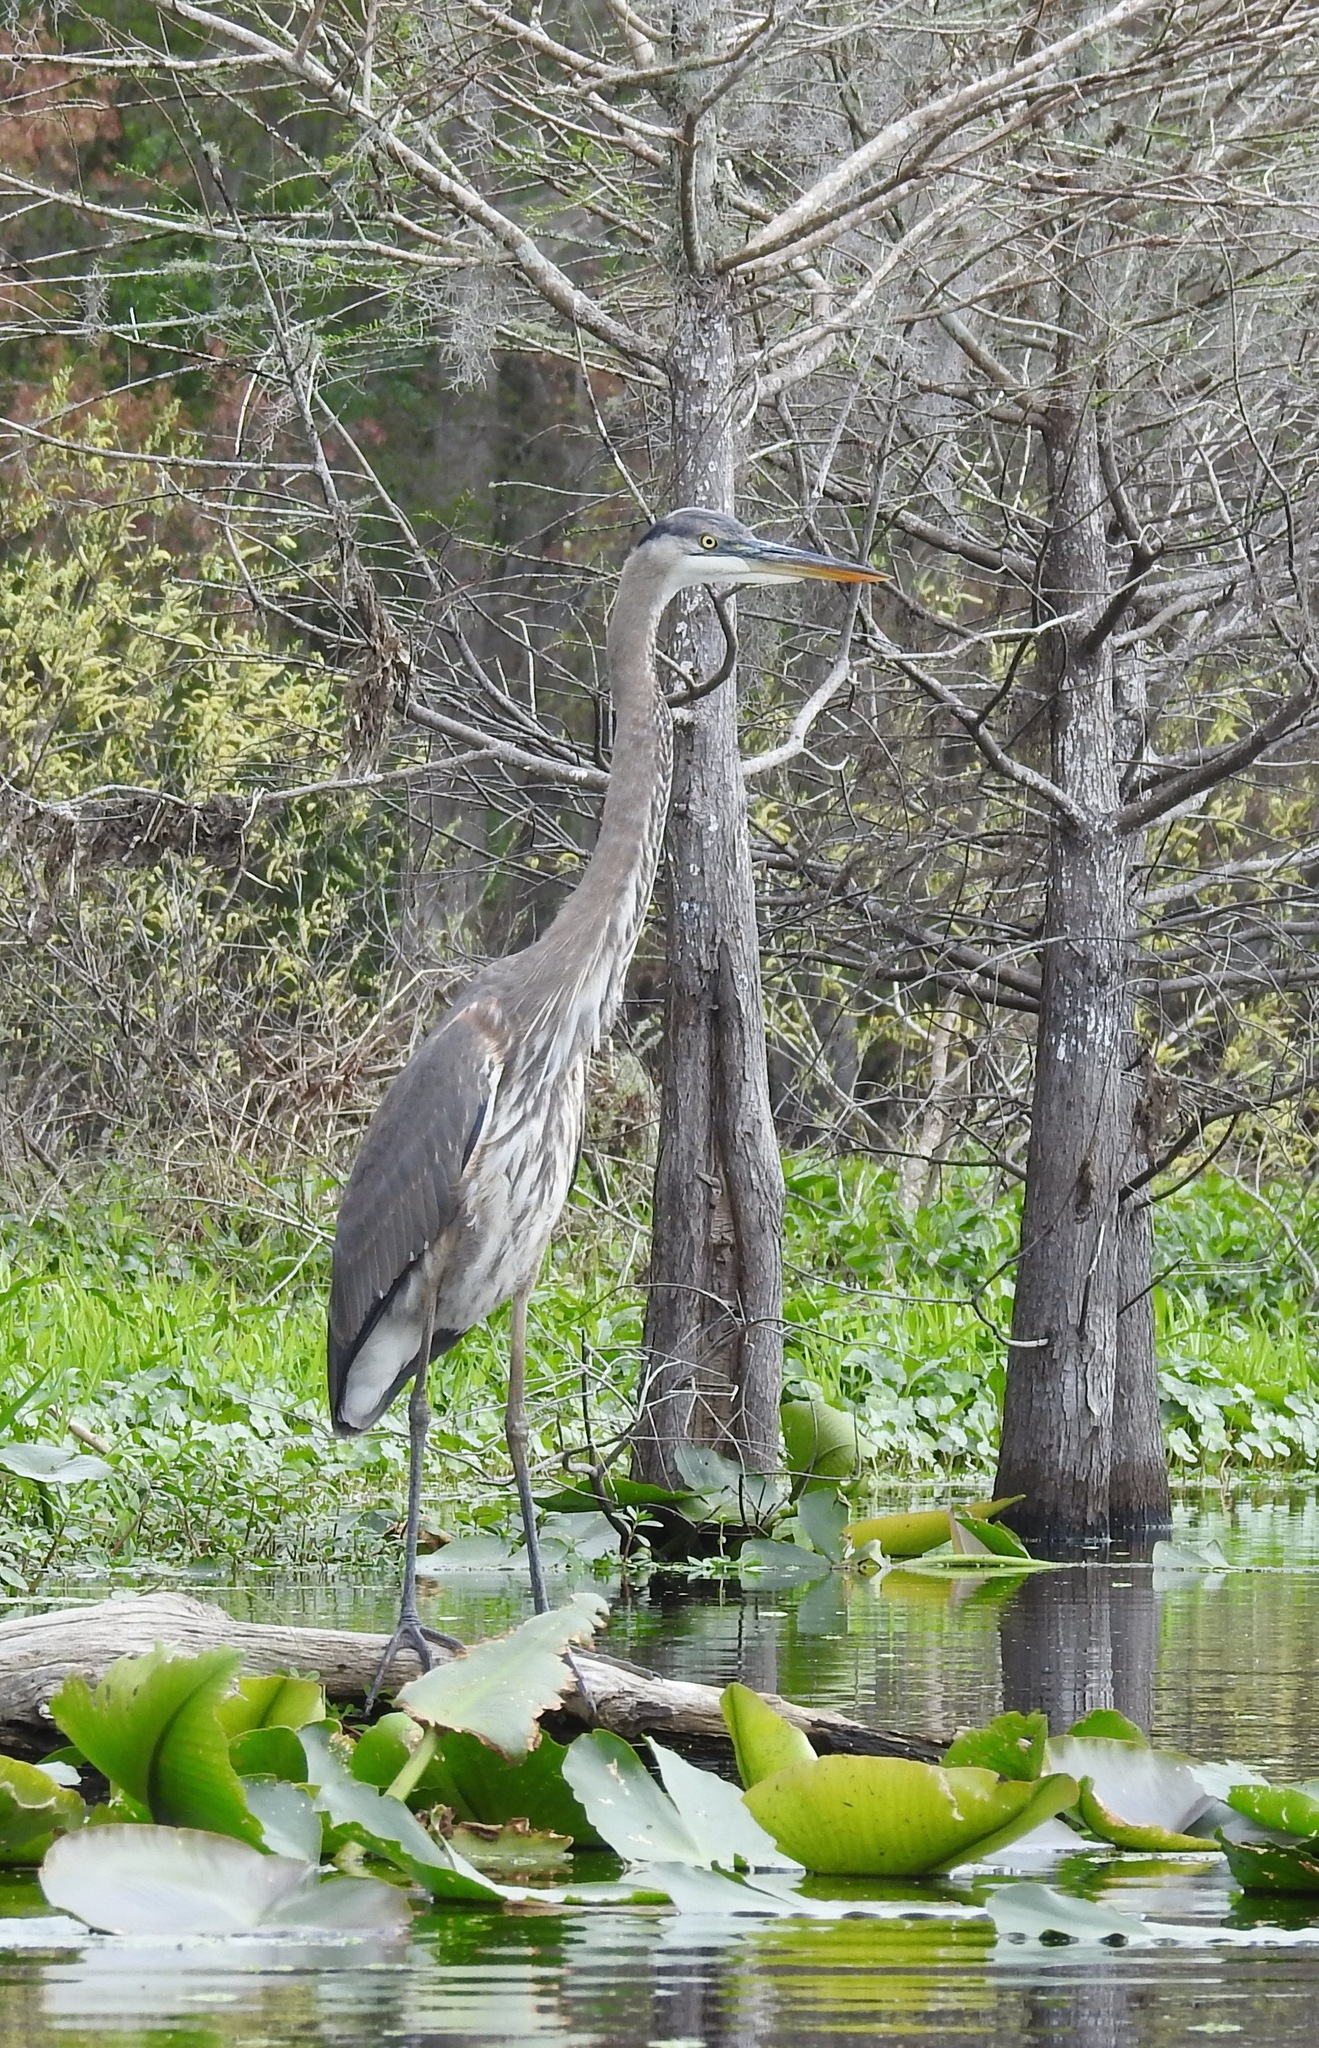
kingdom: Animalia
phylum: Chordata
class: Aves
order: Pelecaniformes
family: Ardeidae
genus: Ardea
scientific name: Ardea herodias
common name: Great blue heron
